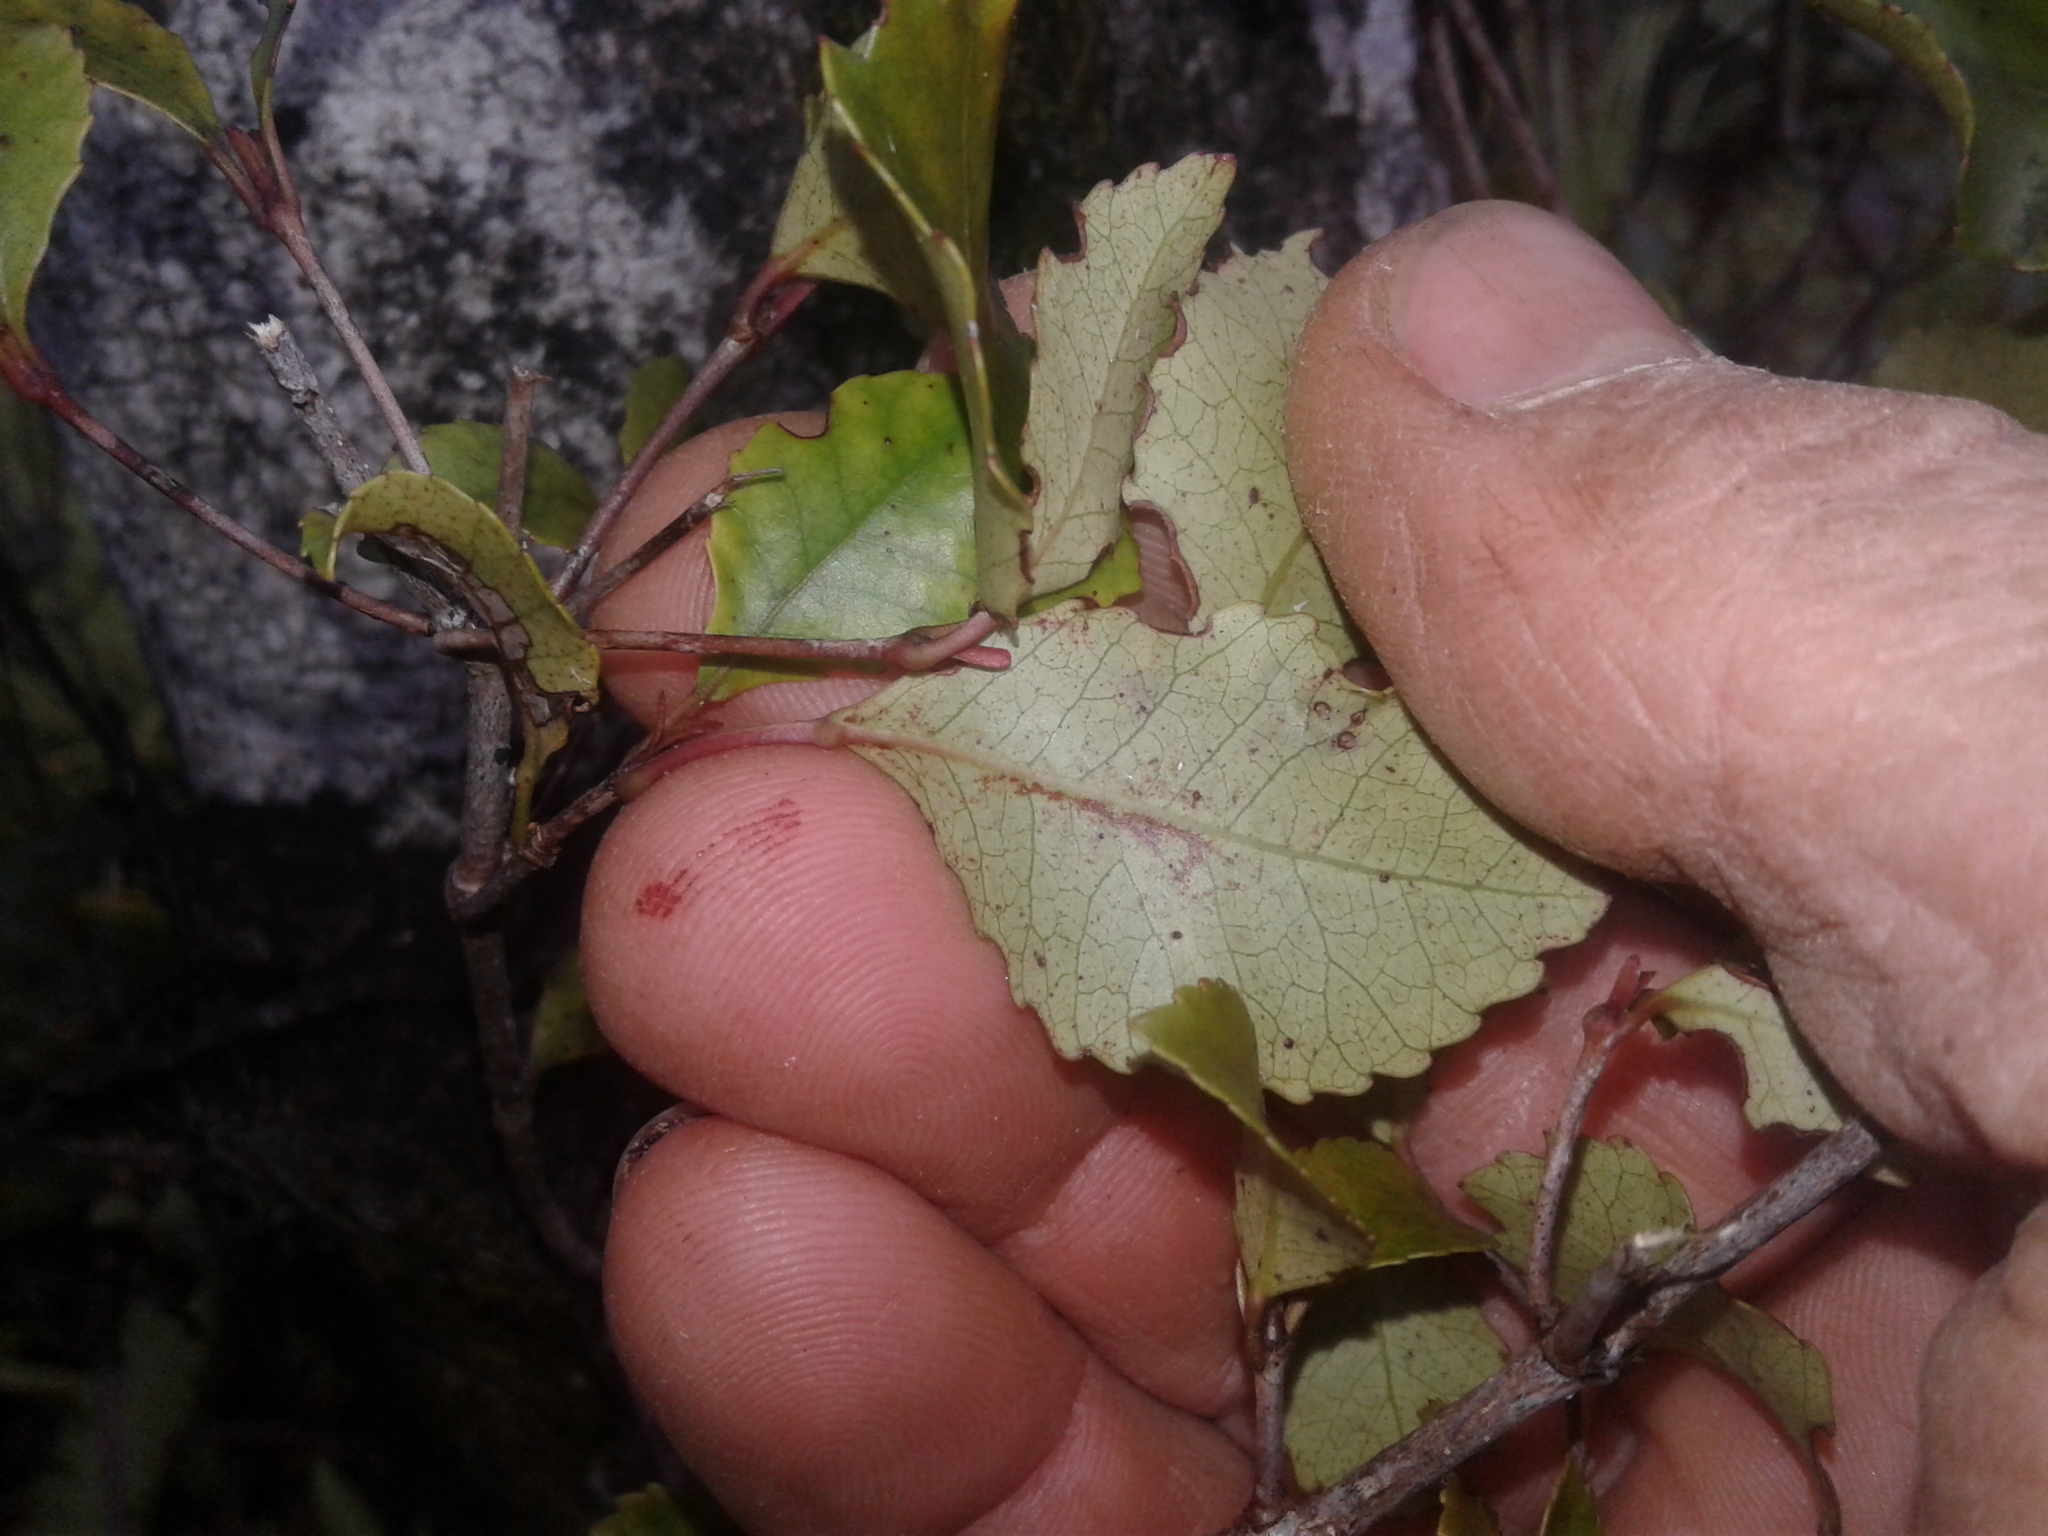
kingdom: Plantae
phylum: Tracheophyta
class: Magnoliopsida
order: Oxalidales
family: Cunoniaceae
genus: Pterophylla
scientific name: Pterophylla racemosa
